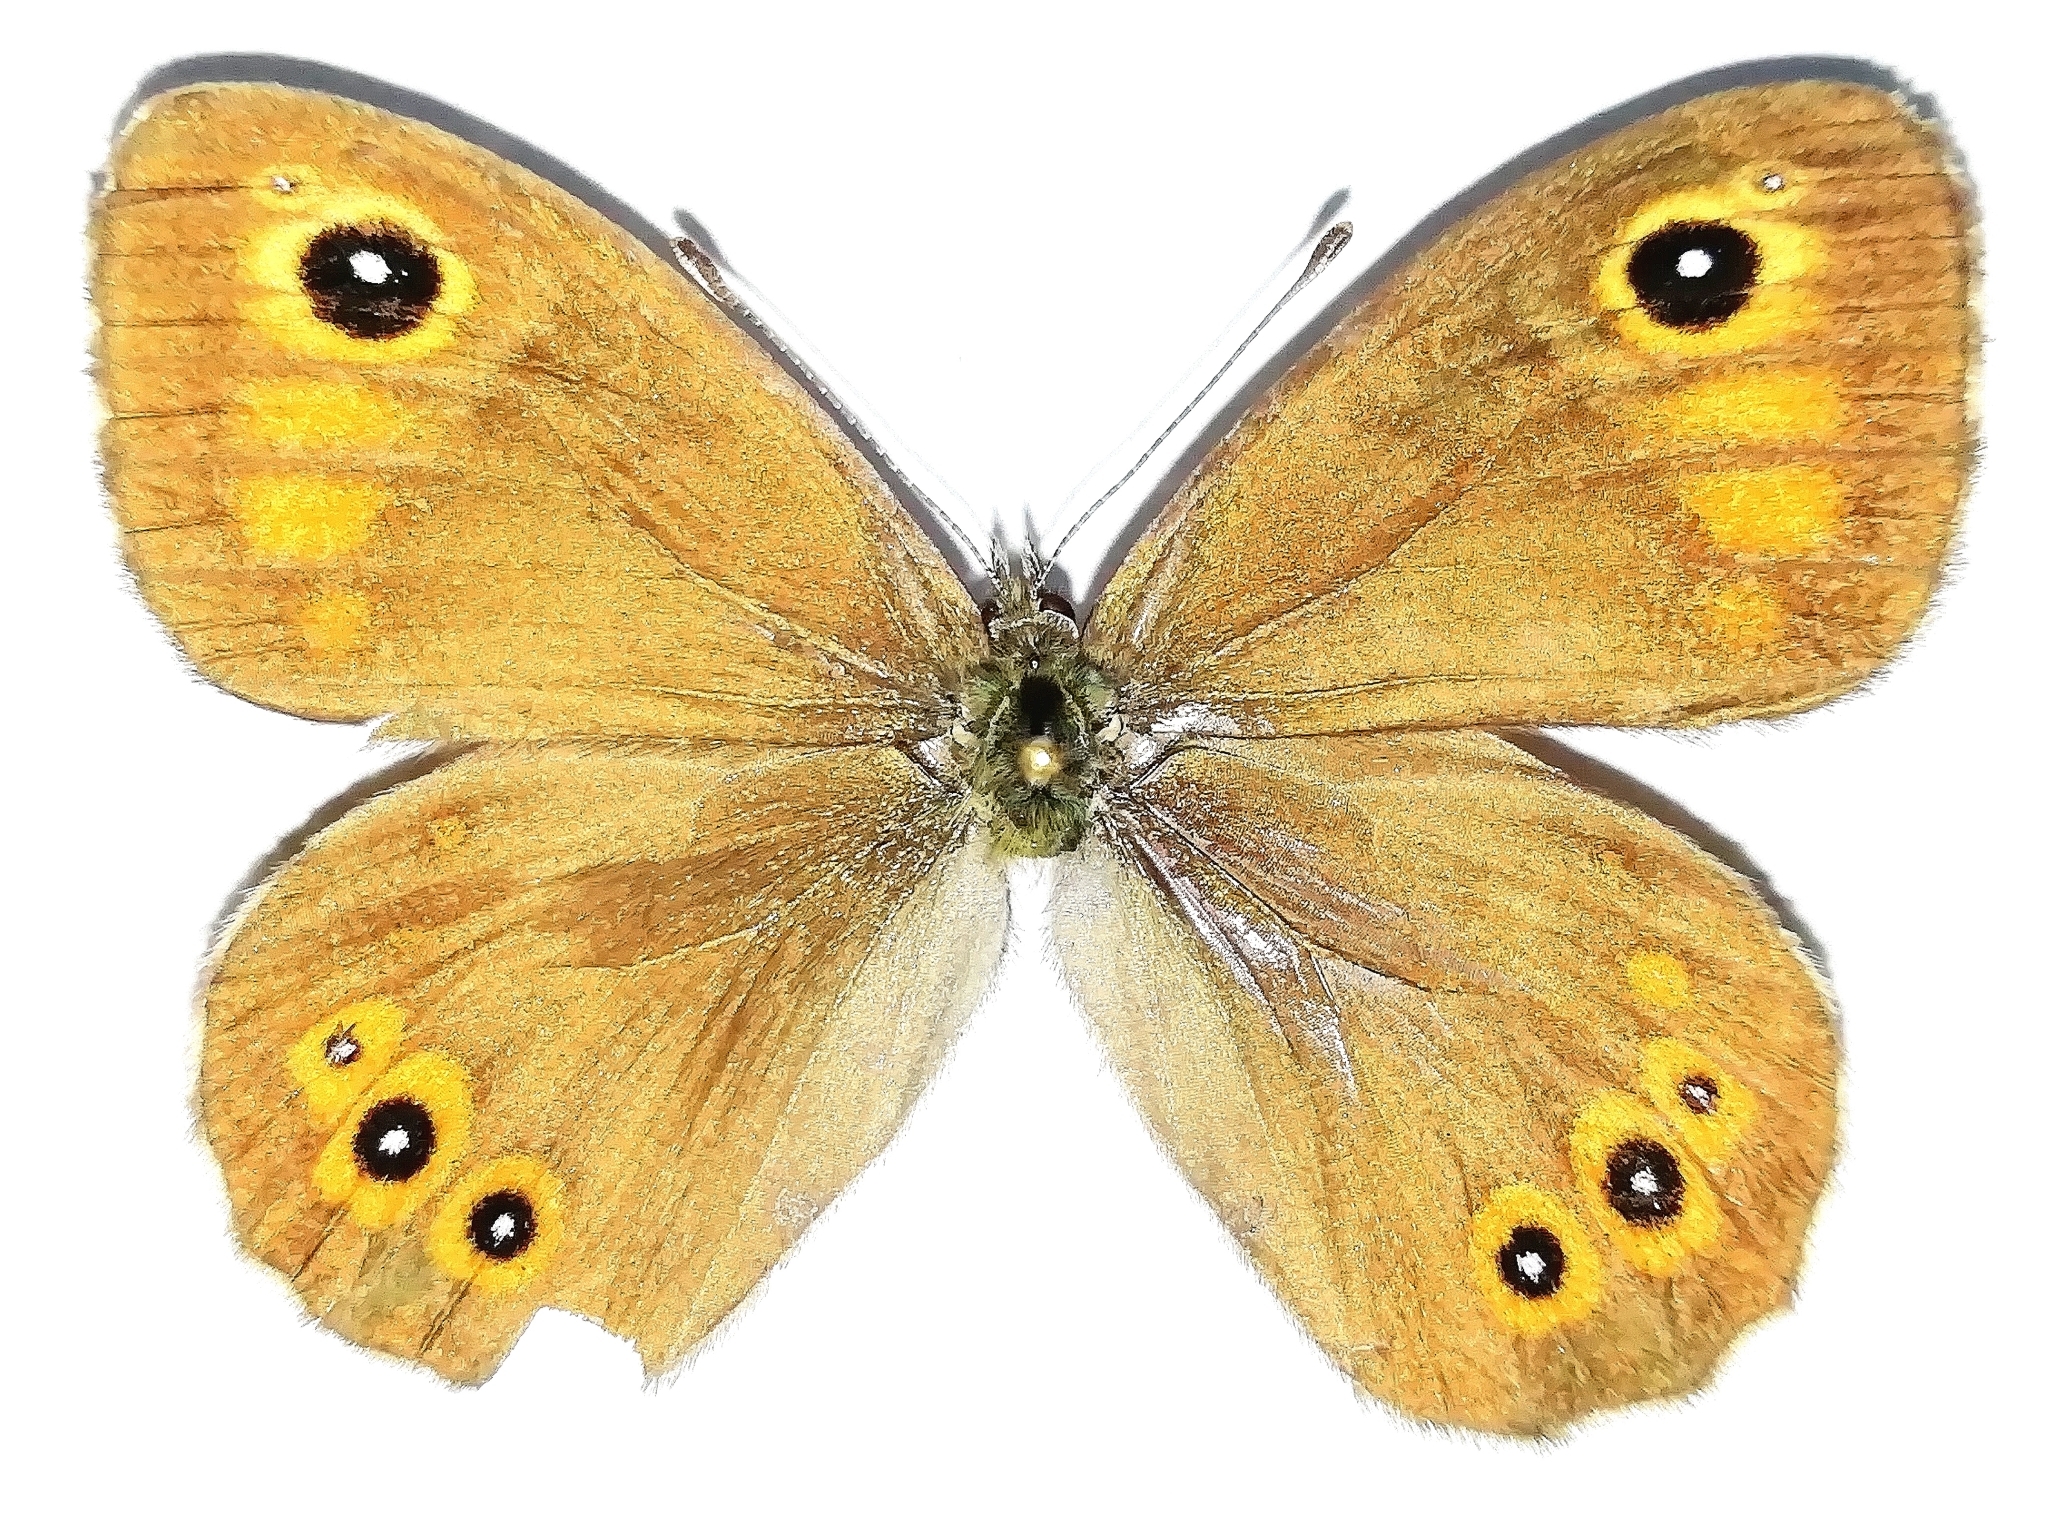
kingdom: Animalia
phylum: Arthropoda
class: Insecta
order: Lepidoptera
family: Nymphalidae
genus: Pararge
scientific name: Pararge Lasiommata maera
